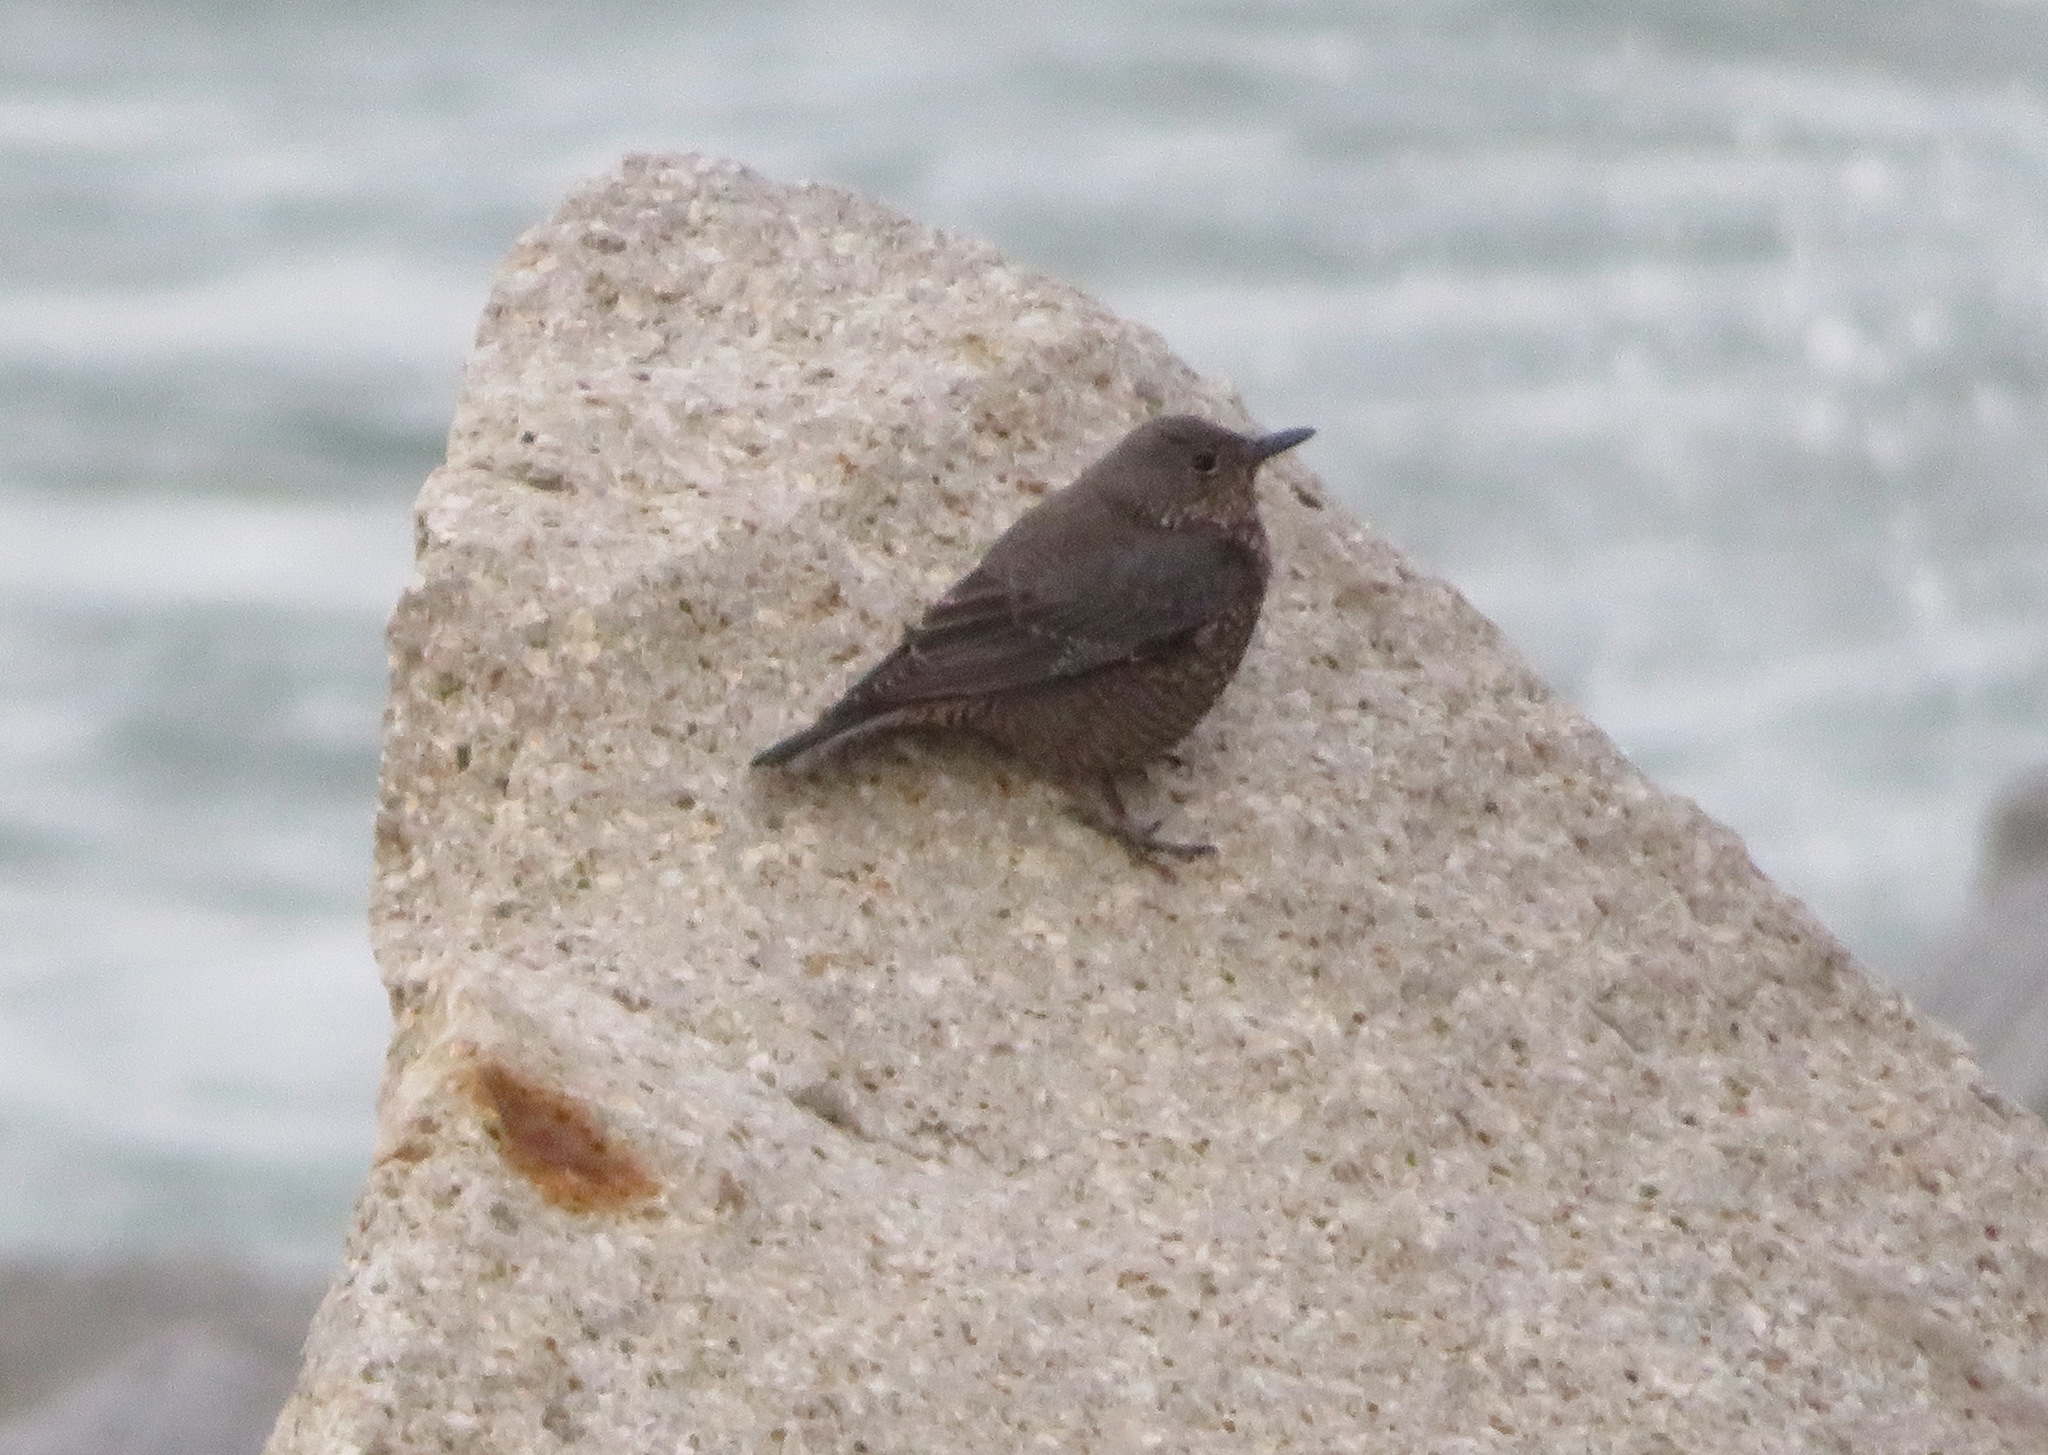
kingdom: Animalia
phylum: Chordata
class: Aves
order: Passeriformes
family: Muscicapidae
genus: Monticola
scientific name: Monticola solitarius
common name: Blue rock thrush
